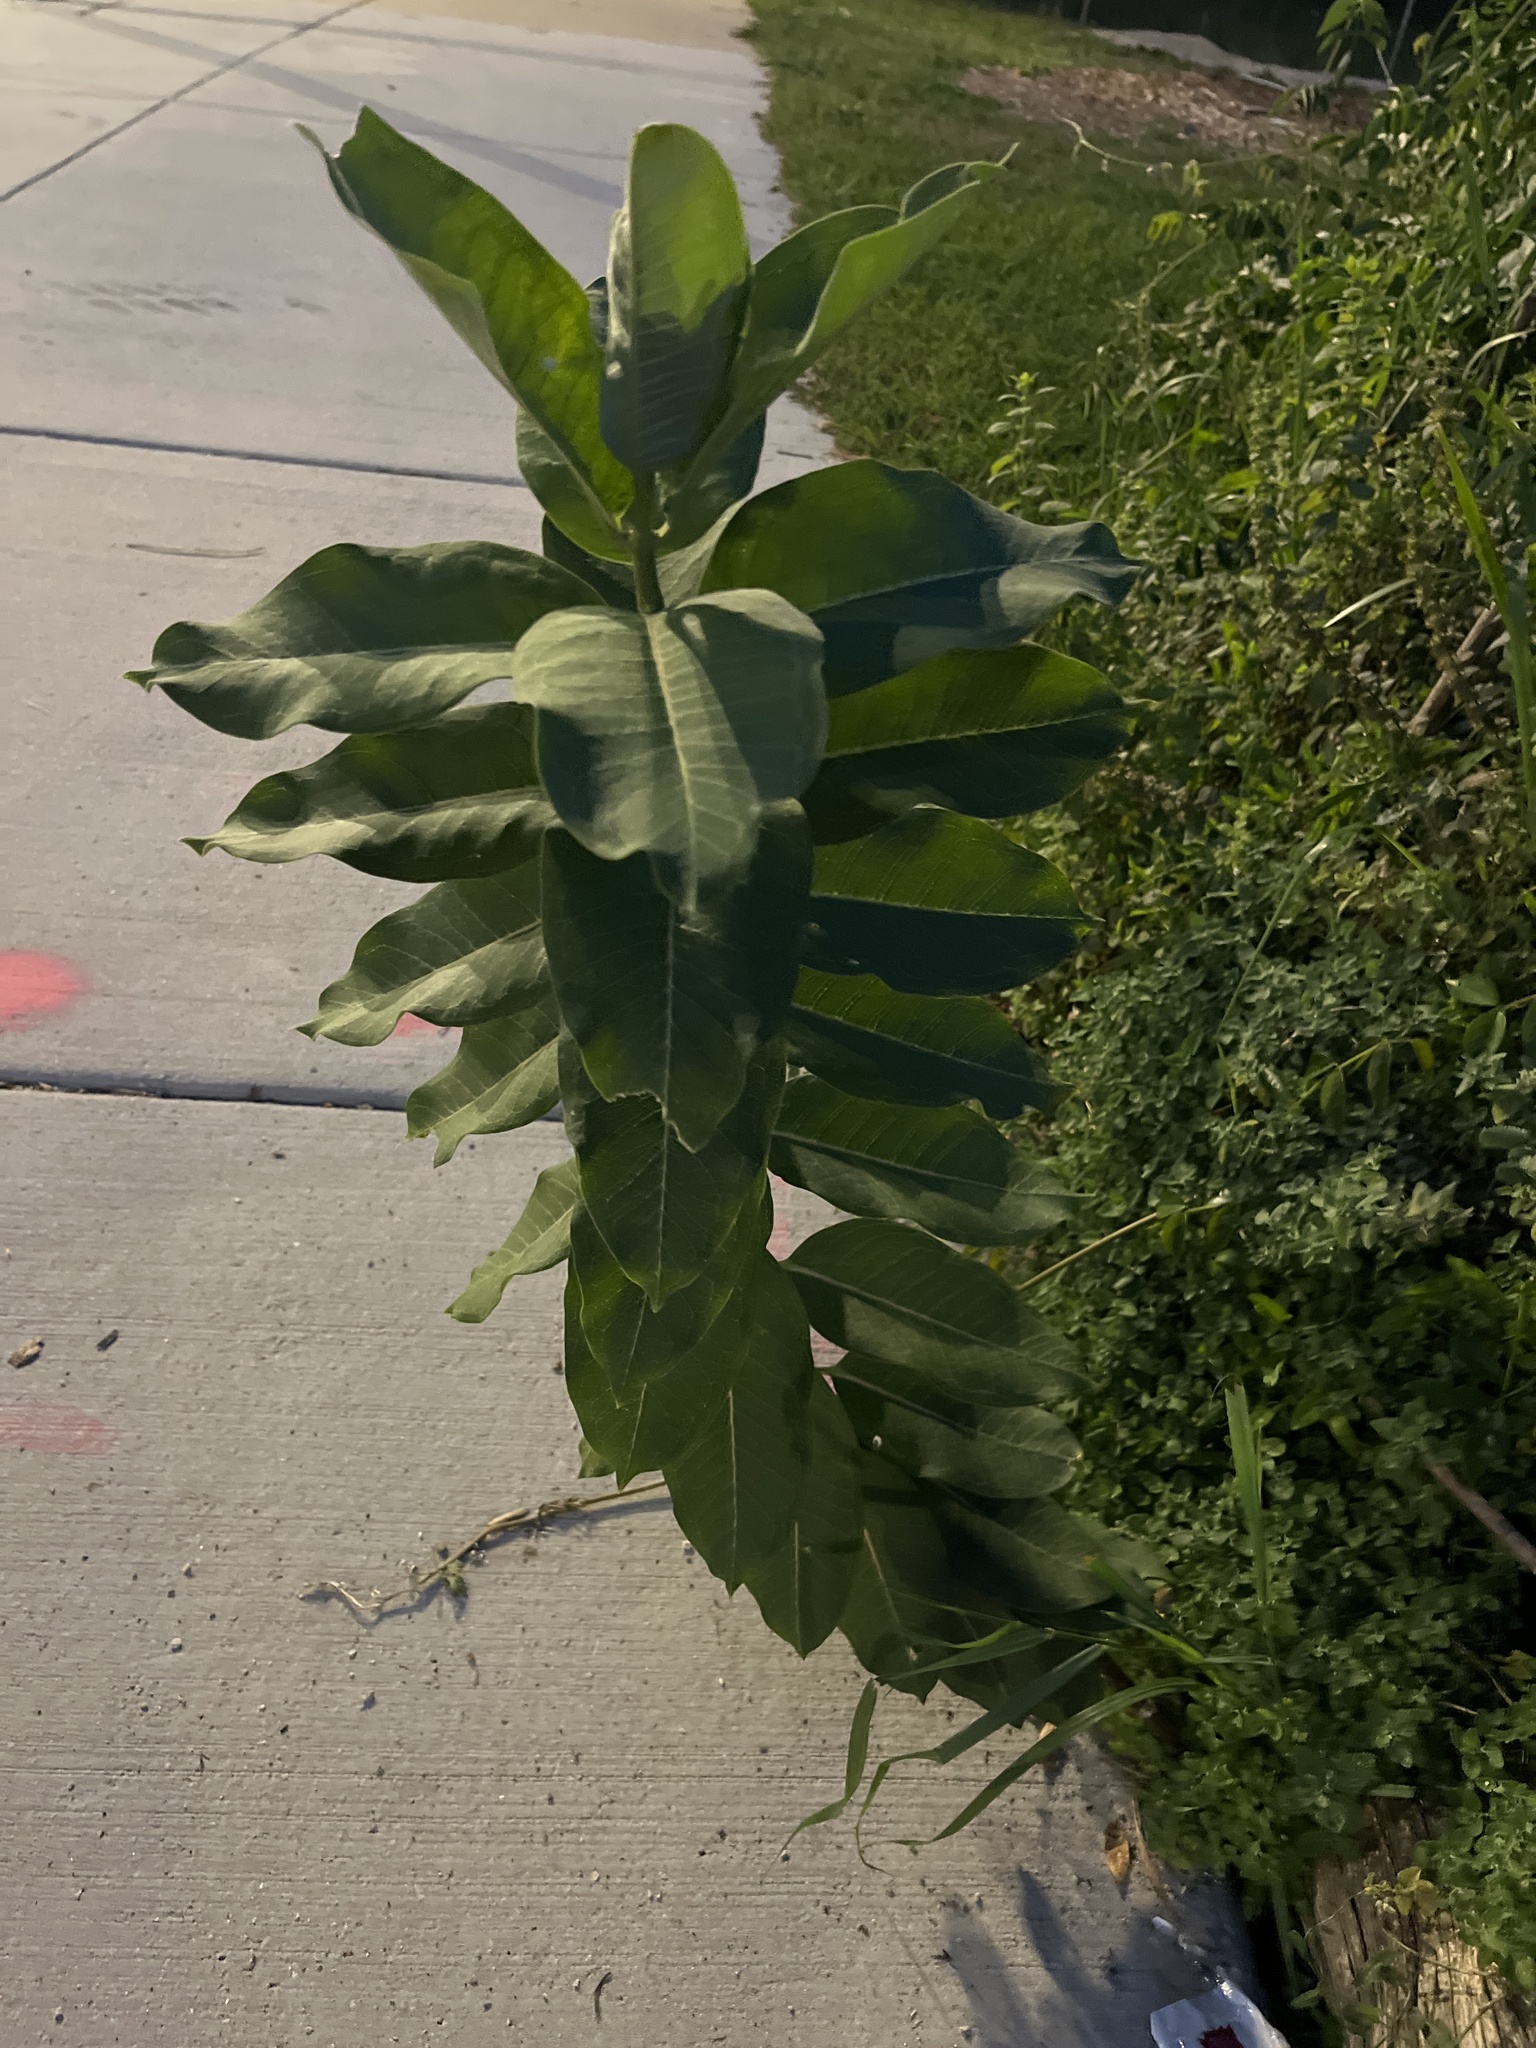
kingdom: Plantae
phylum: Tracheophyta
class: Magnoliopsida
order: Gentianales
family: Apocynaceae
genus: Asclepias
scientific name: Asclepias syriaca
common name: Common milkweed
